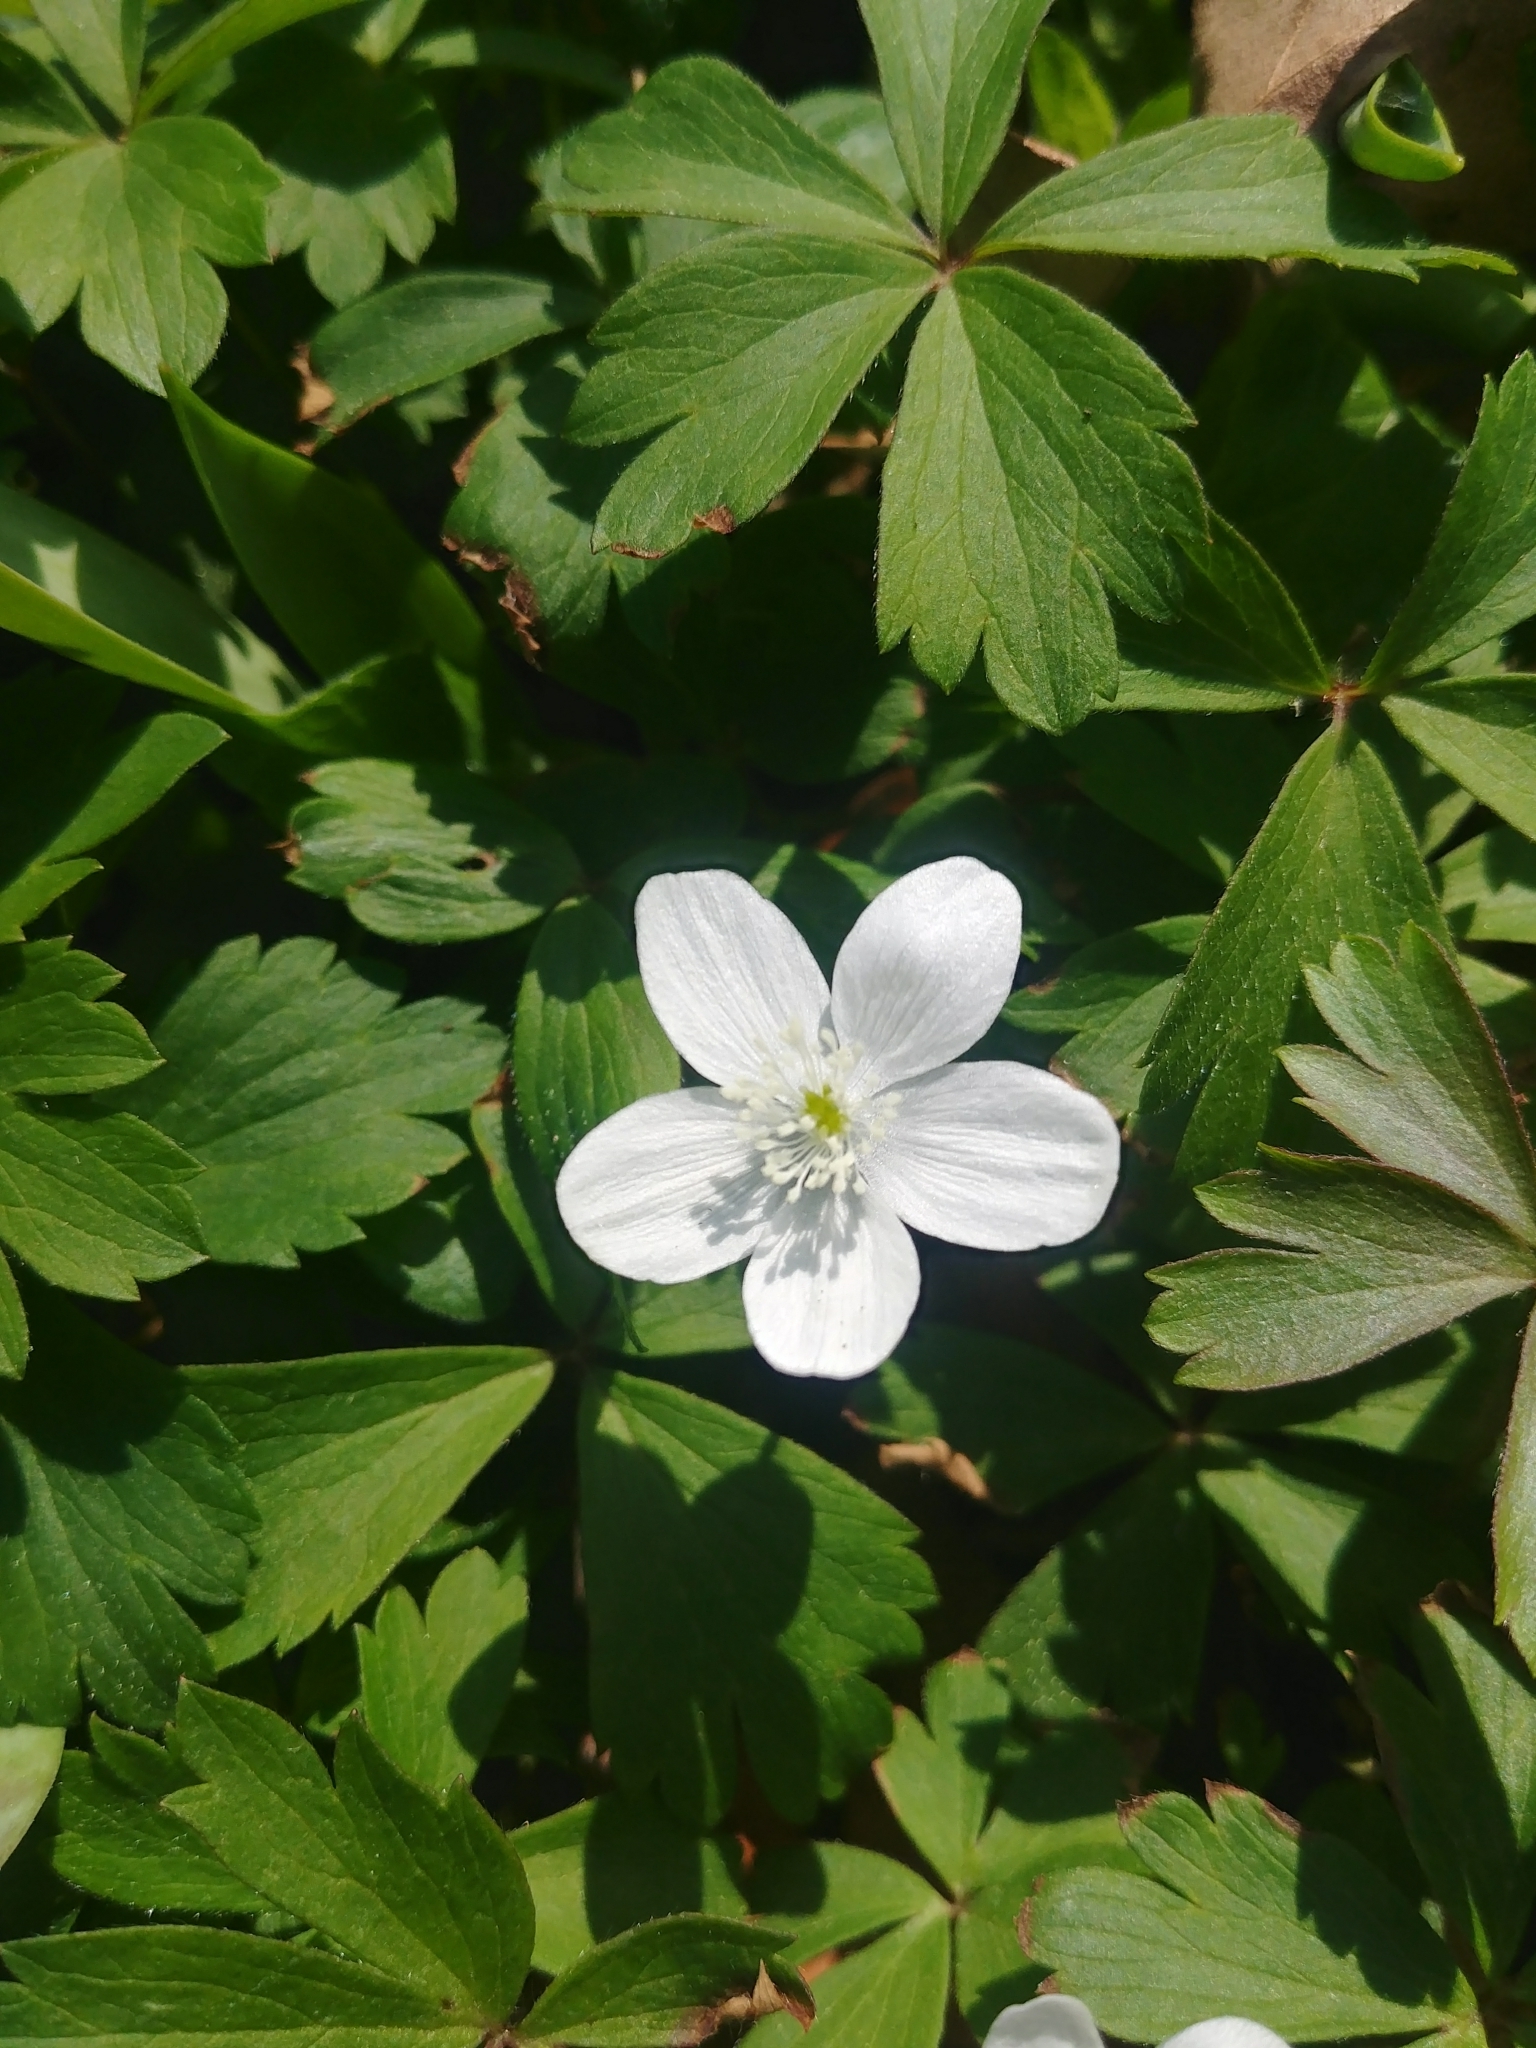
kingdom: Plantae
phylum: Tracheophyta
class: Magnoliopsida
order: Ranunculales
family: Ranunculaceae
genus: Anemone
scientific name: Anemone quinquefolia
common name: Wood anemone
